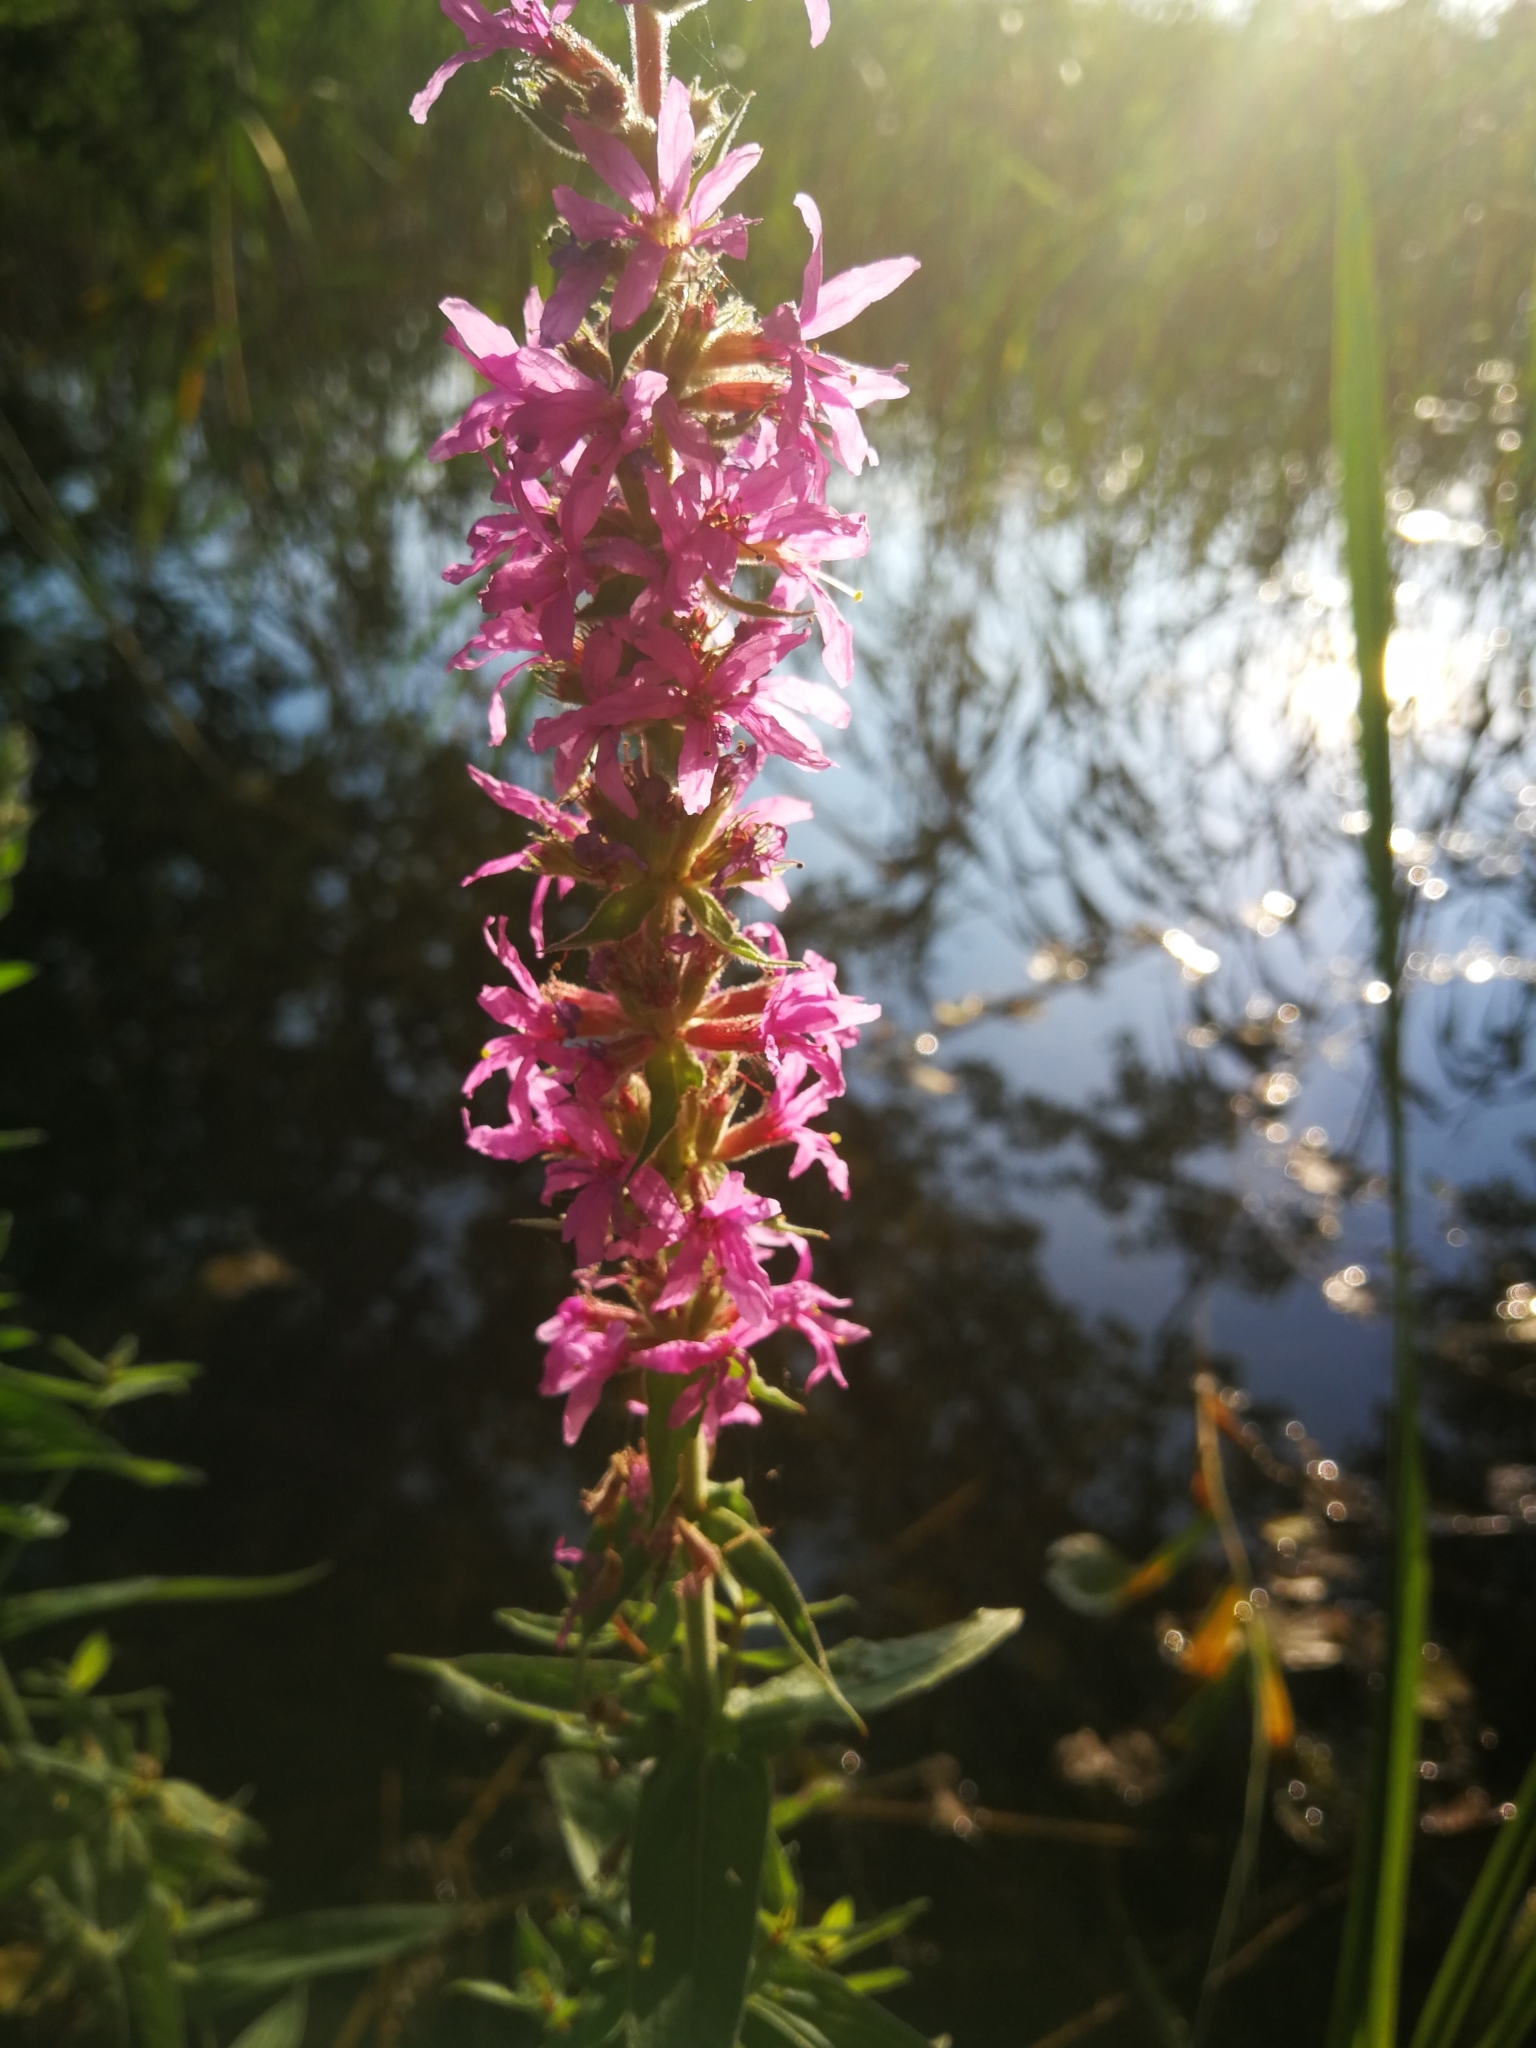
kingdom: Plantae
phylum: Tracheophyta
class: Magnoliopsida
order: Myrtales
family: Lythraceae
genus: Lythrum
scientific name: Lythrum salicaria
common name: Purple loosestrife
